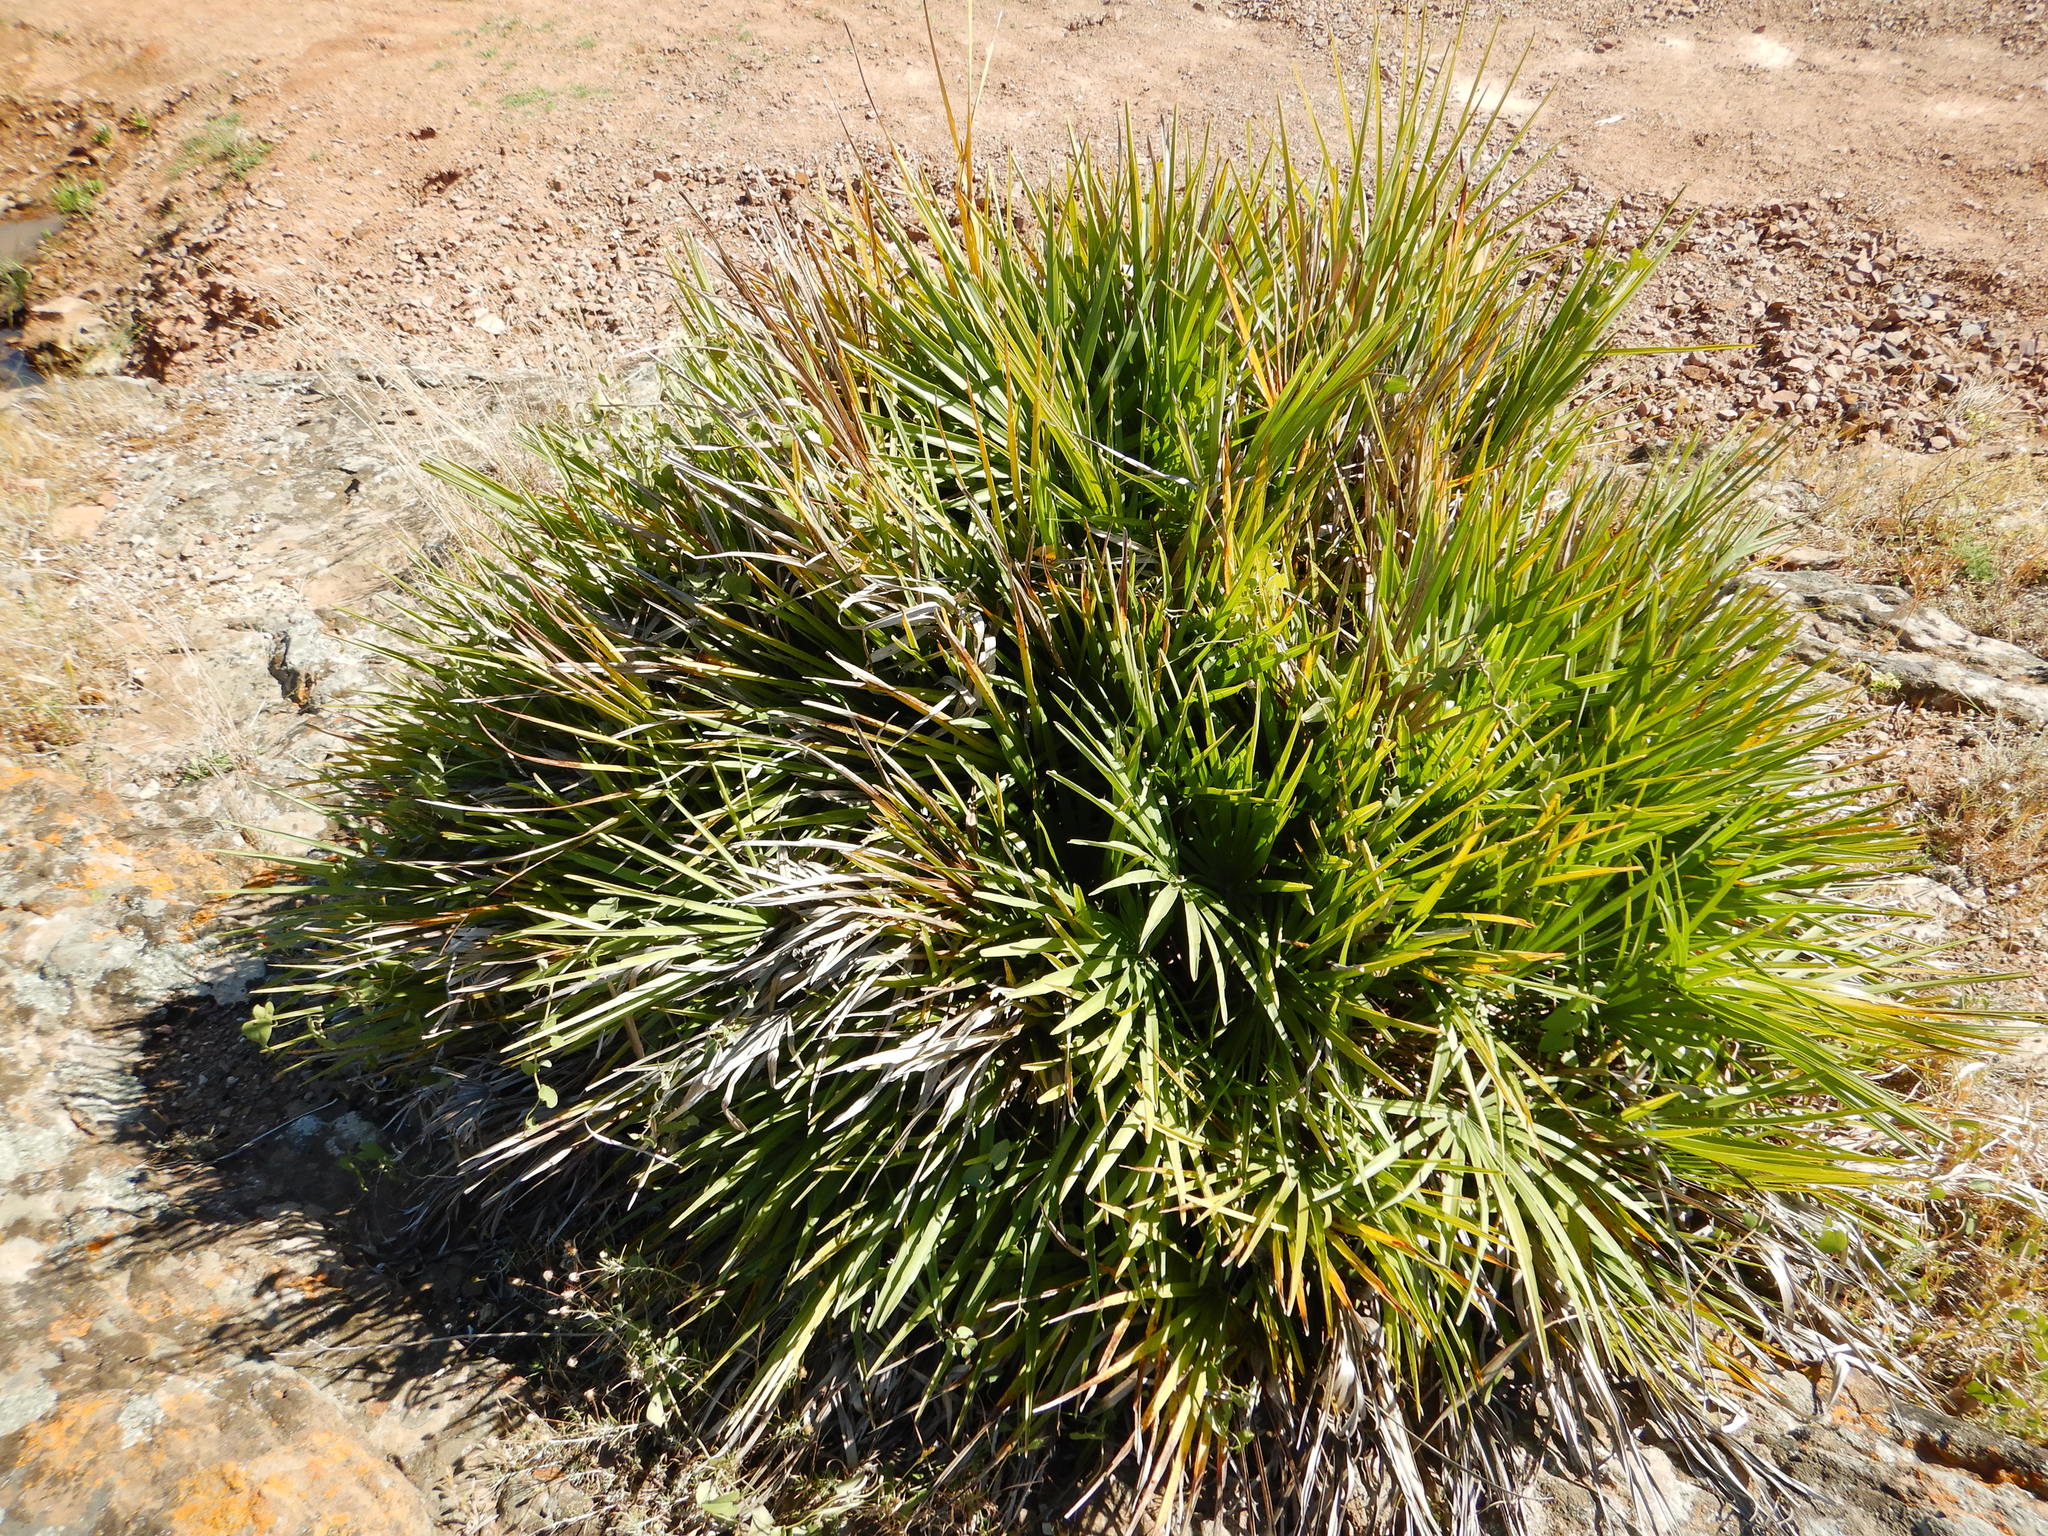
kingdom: Plantae
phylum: Tracheophyta
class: Liliopsida
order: Arecales
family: Arecaceae
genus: Chamaerops
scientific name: Chamaerops humilis
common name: Dwarf fan palm
